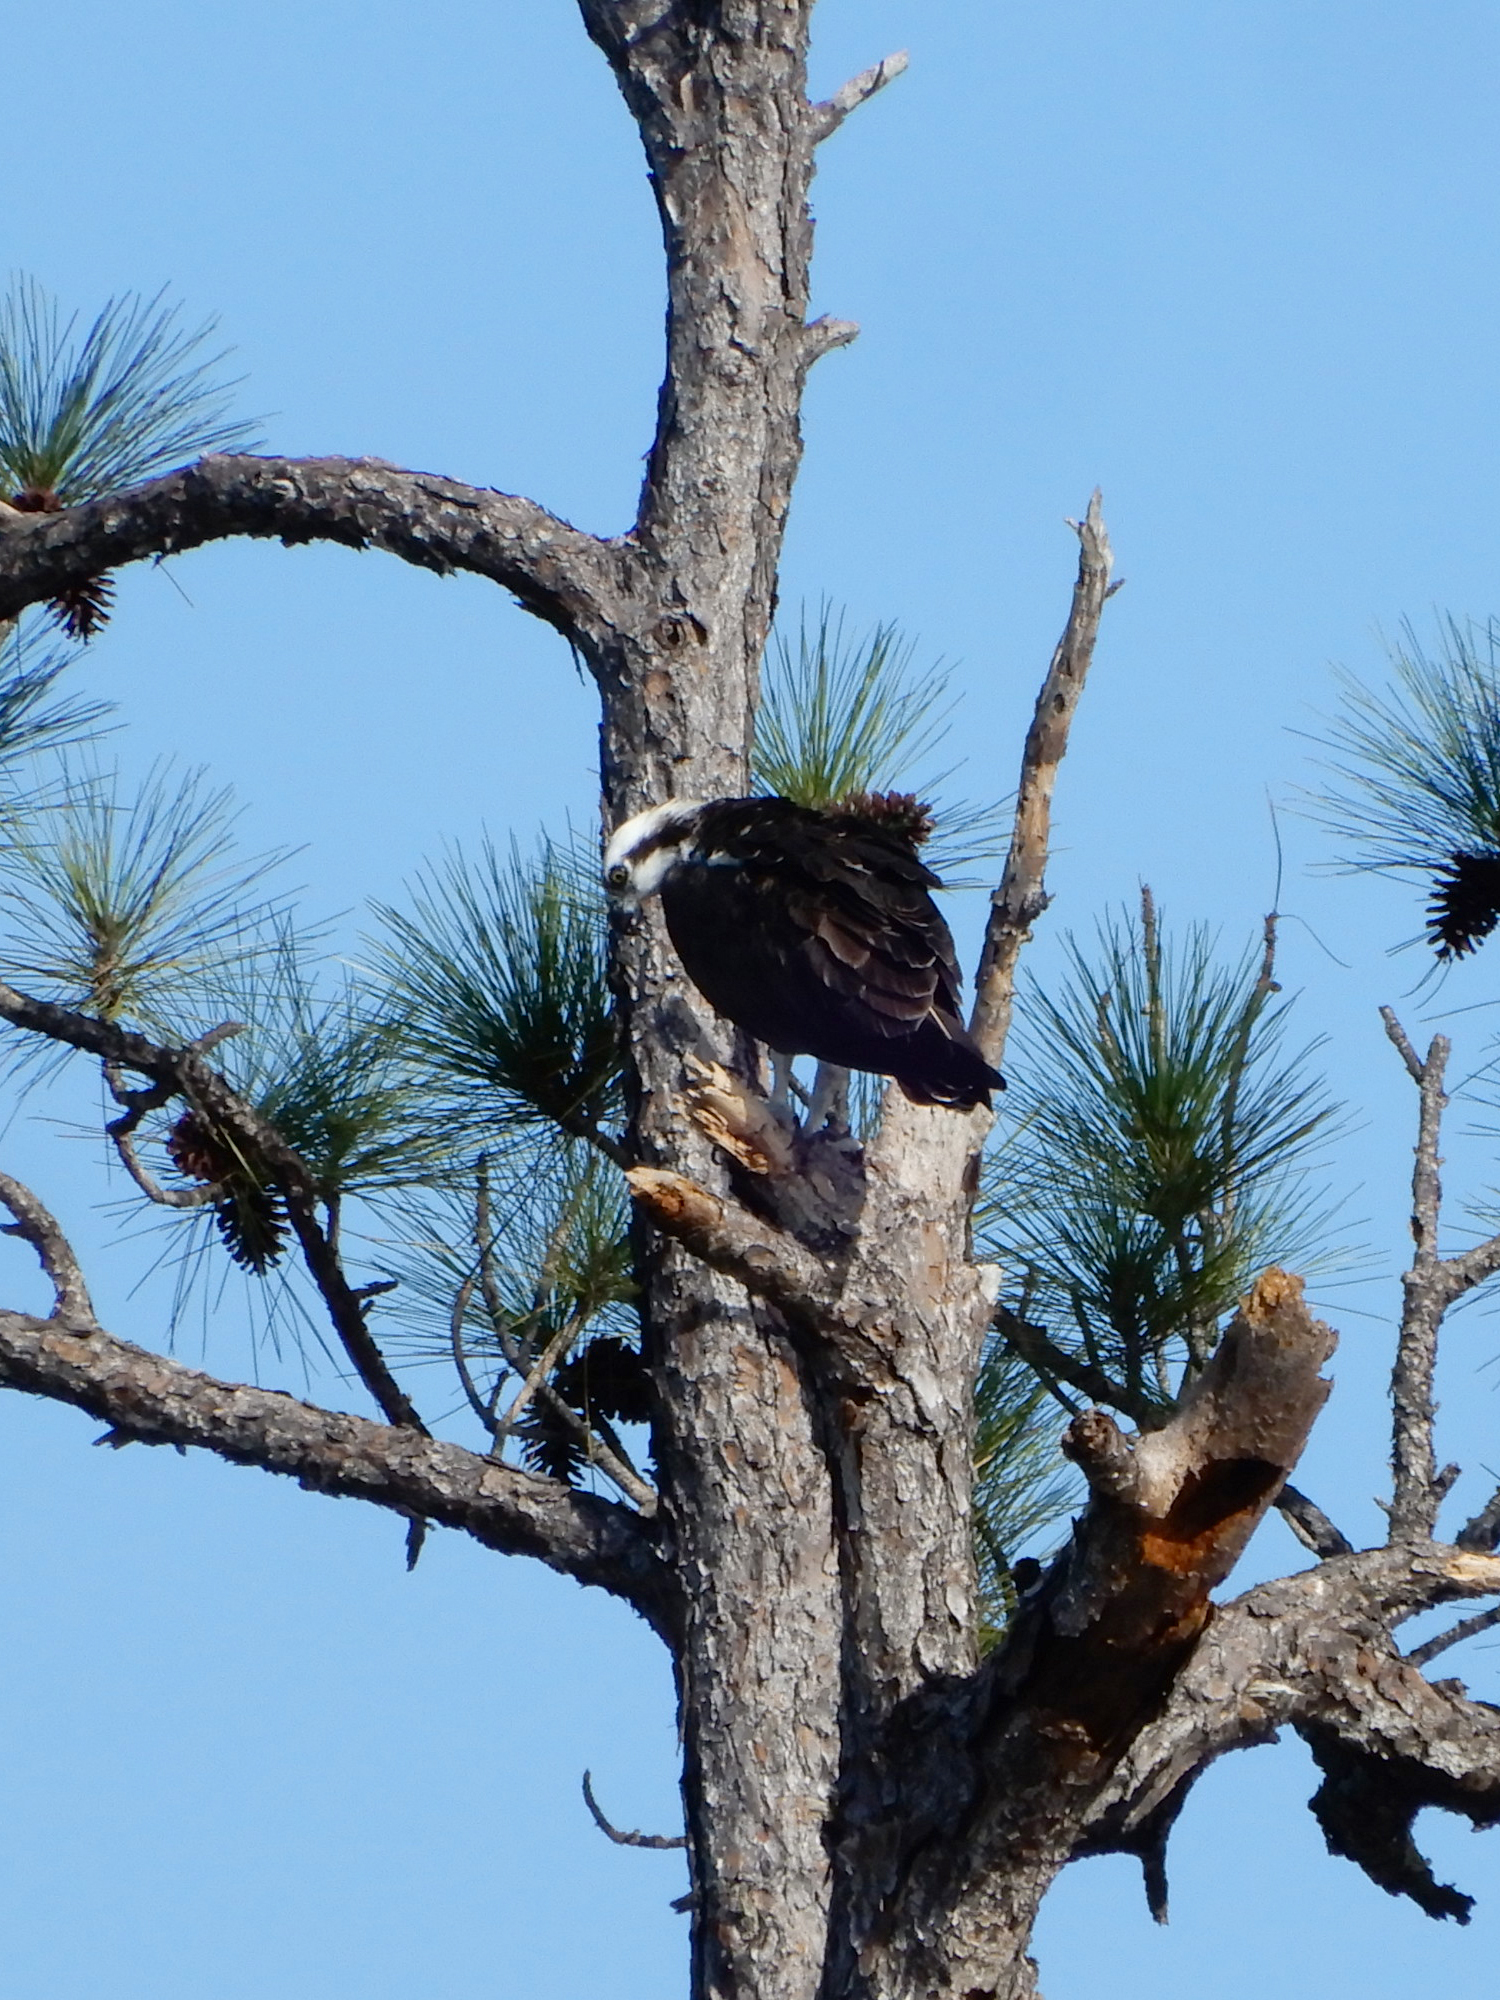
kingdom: Animalia
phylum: Chordata
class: Aves
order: Accipitriformes
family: Pandionidae
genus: Pandion
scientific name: Pandion haliaetus
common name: Osprey
